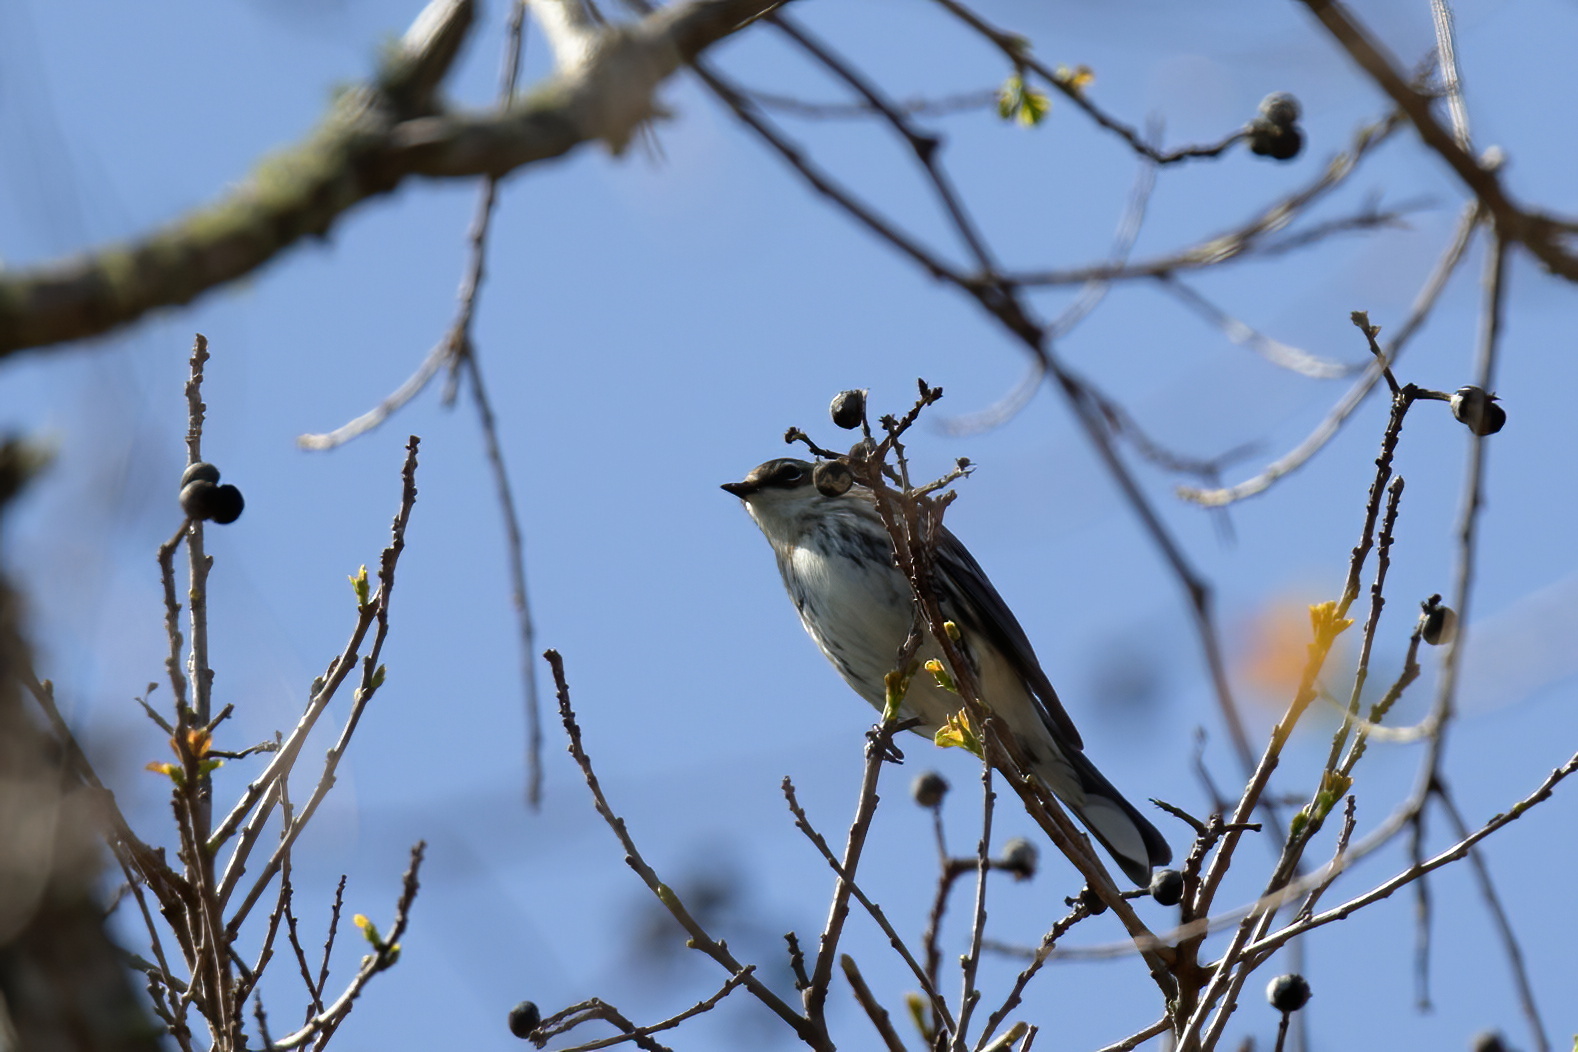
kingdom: Animalia
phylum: Chordata
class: Aves
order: Passeriformes
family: Parulidae
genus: Setophaga
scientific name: Setophaga coronata
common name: Myrtle warbler
